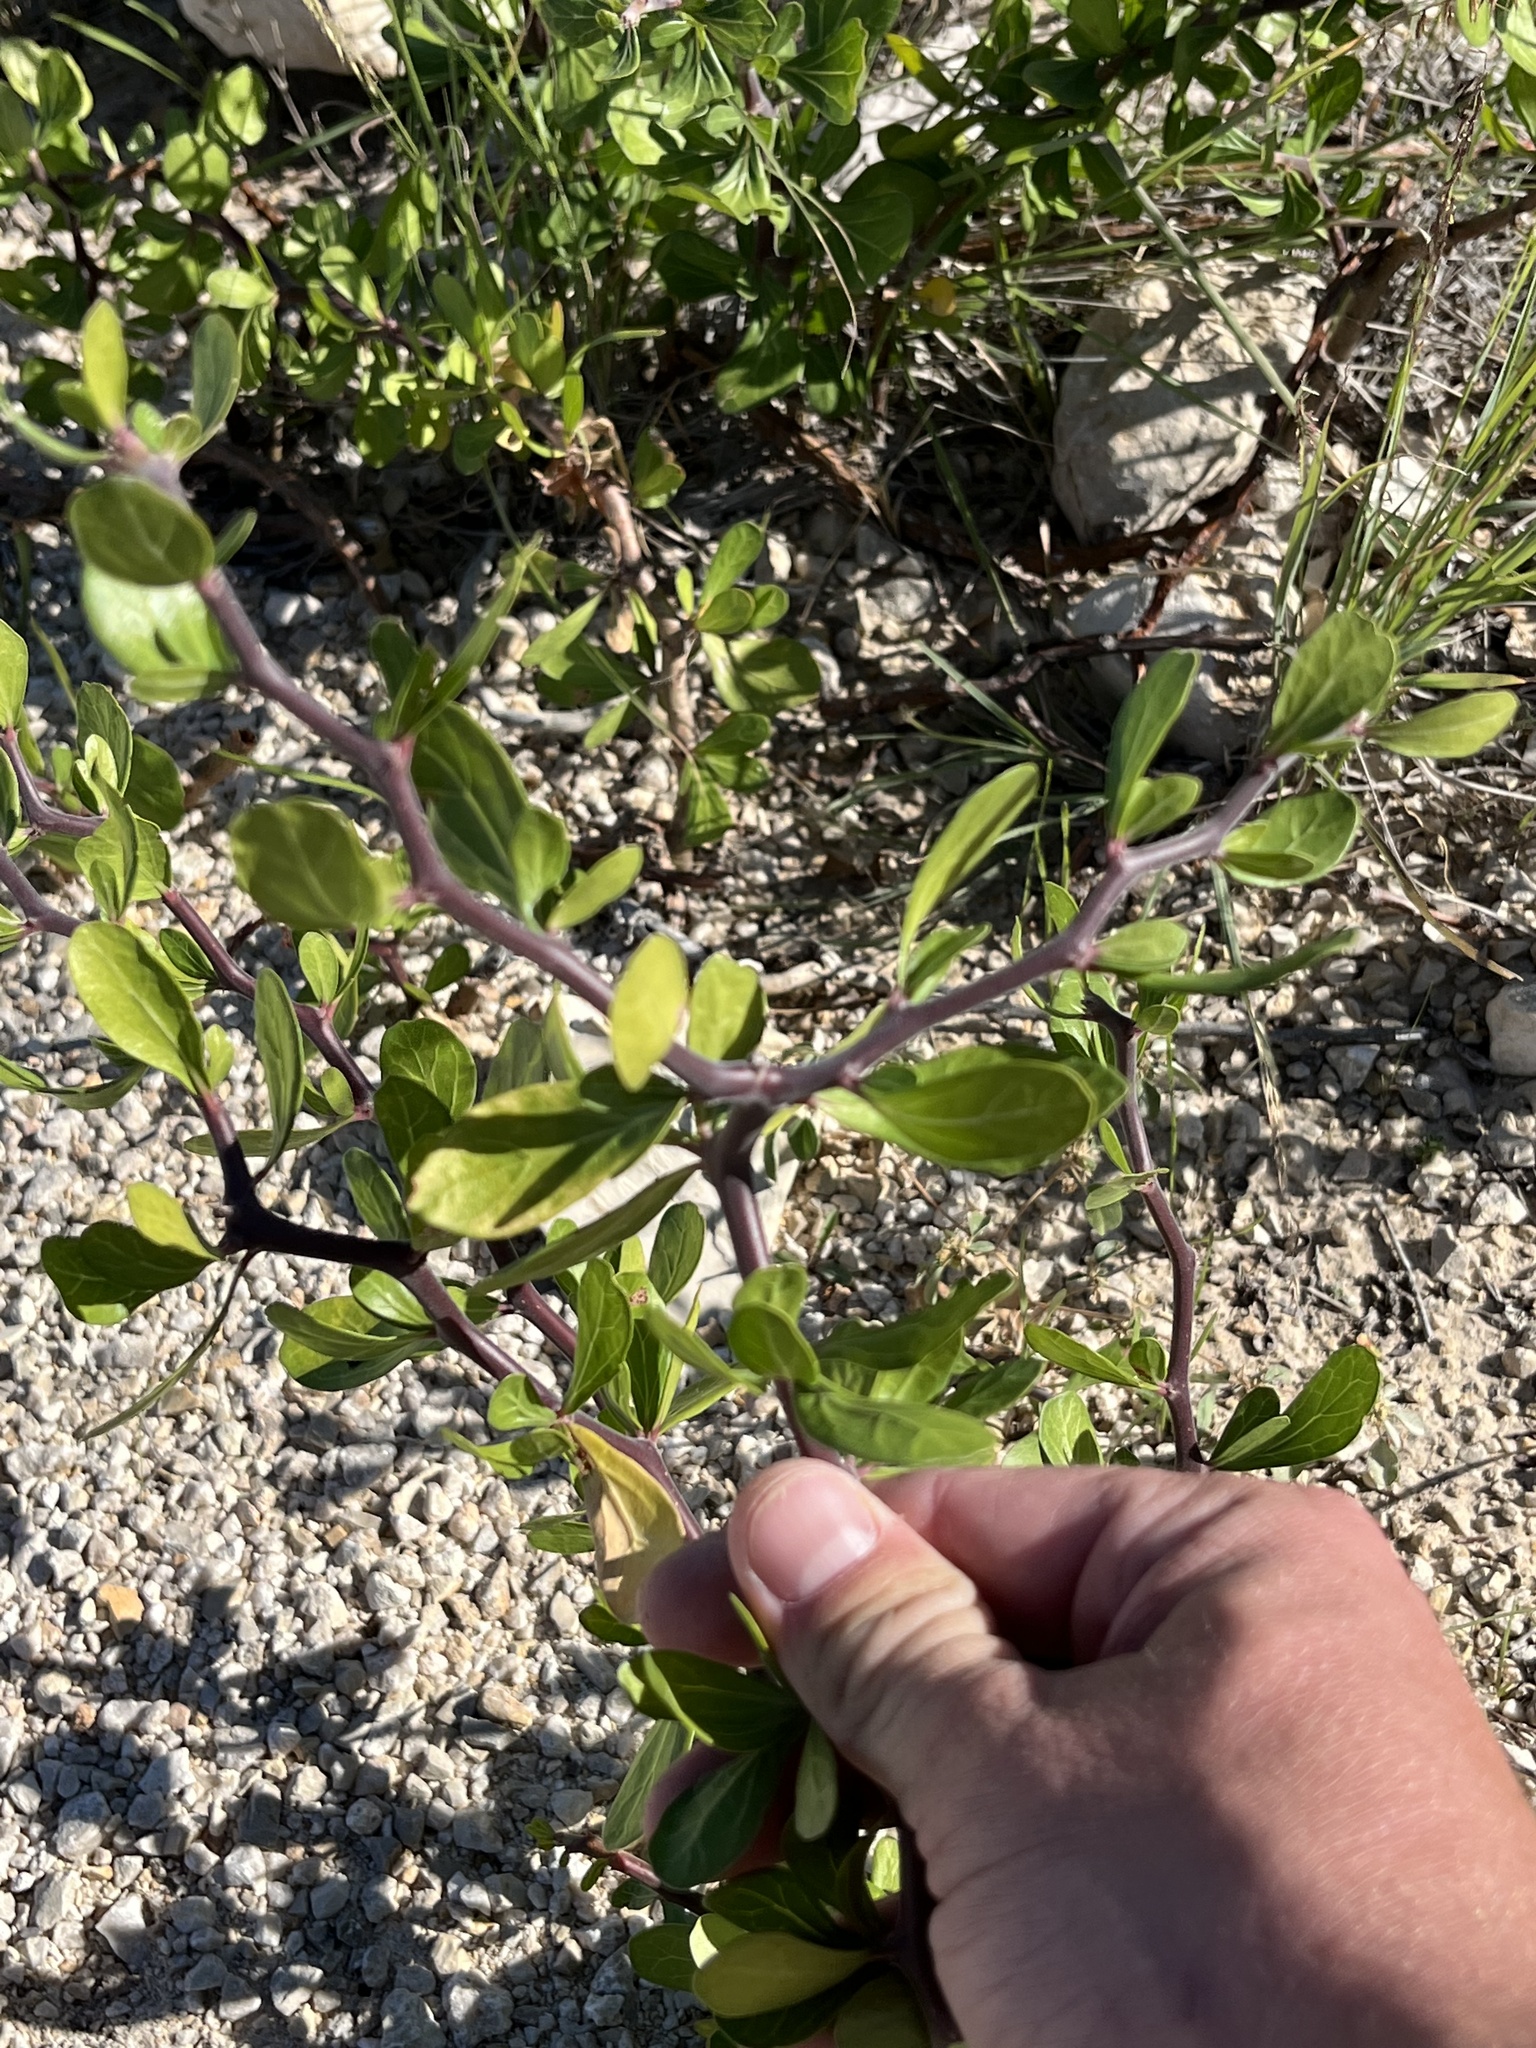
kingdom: Plantae
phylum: Tracheophyta
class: Magnoliopsida
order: Malpighiales
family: Euphorbiaceae
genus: Jatropha
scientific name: Jatropha dioica
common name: Leatherstem
